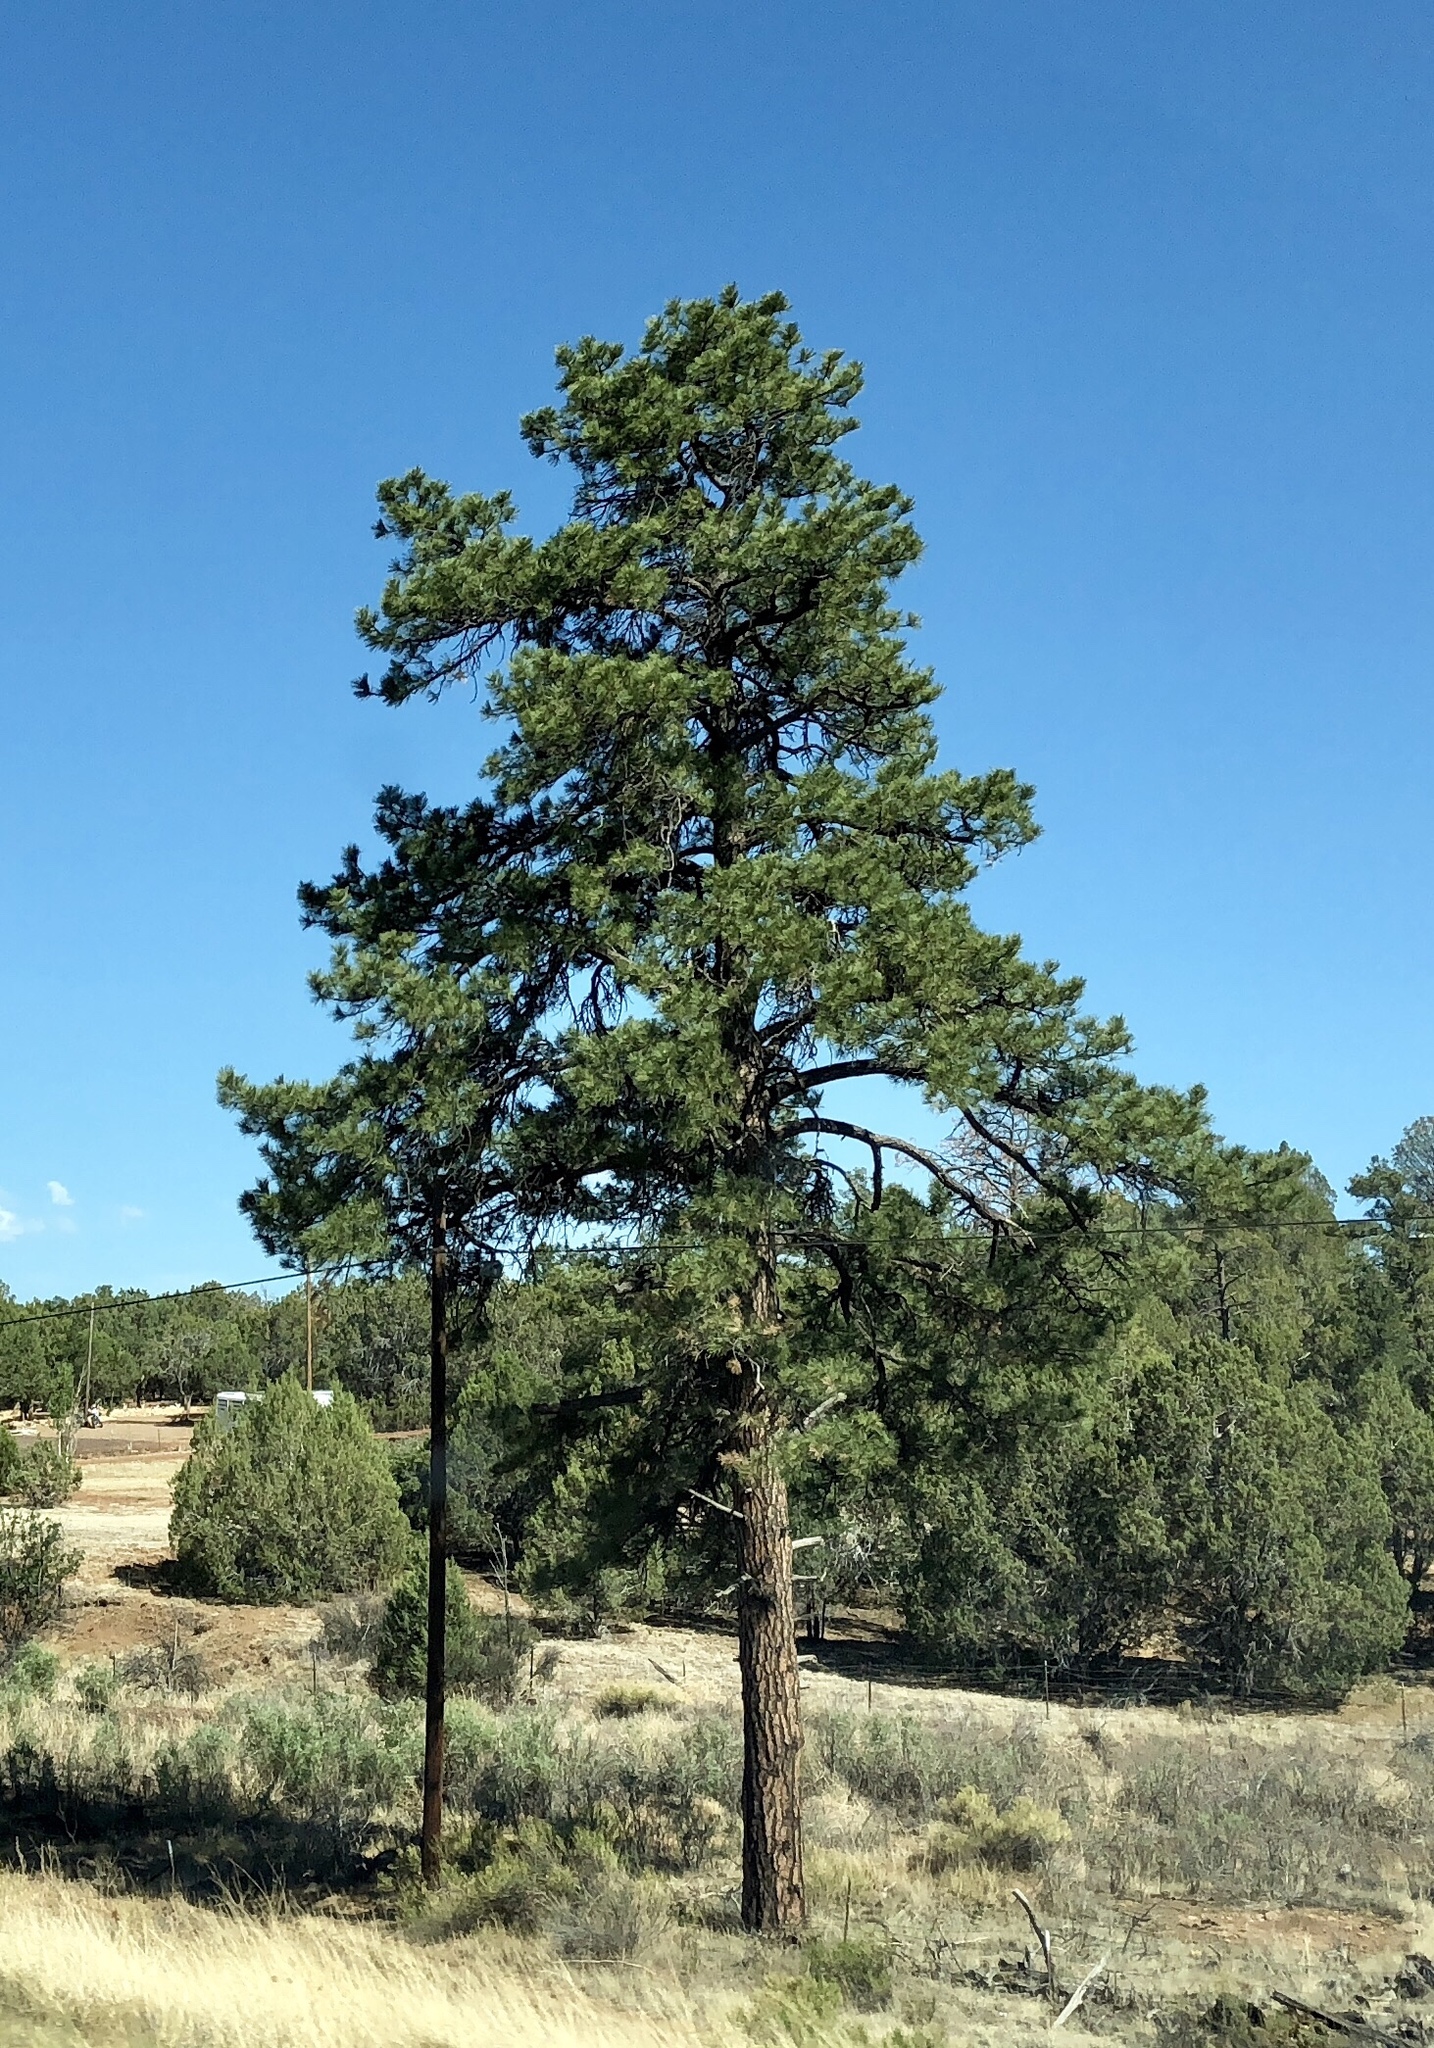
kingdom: Plantae
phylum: Tracheophyta
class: Pinopsida
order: Pinales
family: Pinaceae
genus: Pinus
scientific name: Pinus ponderosa
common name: Western yellow-pine
